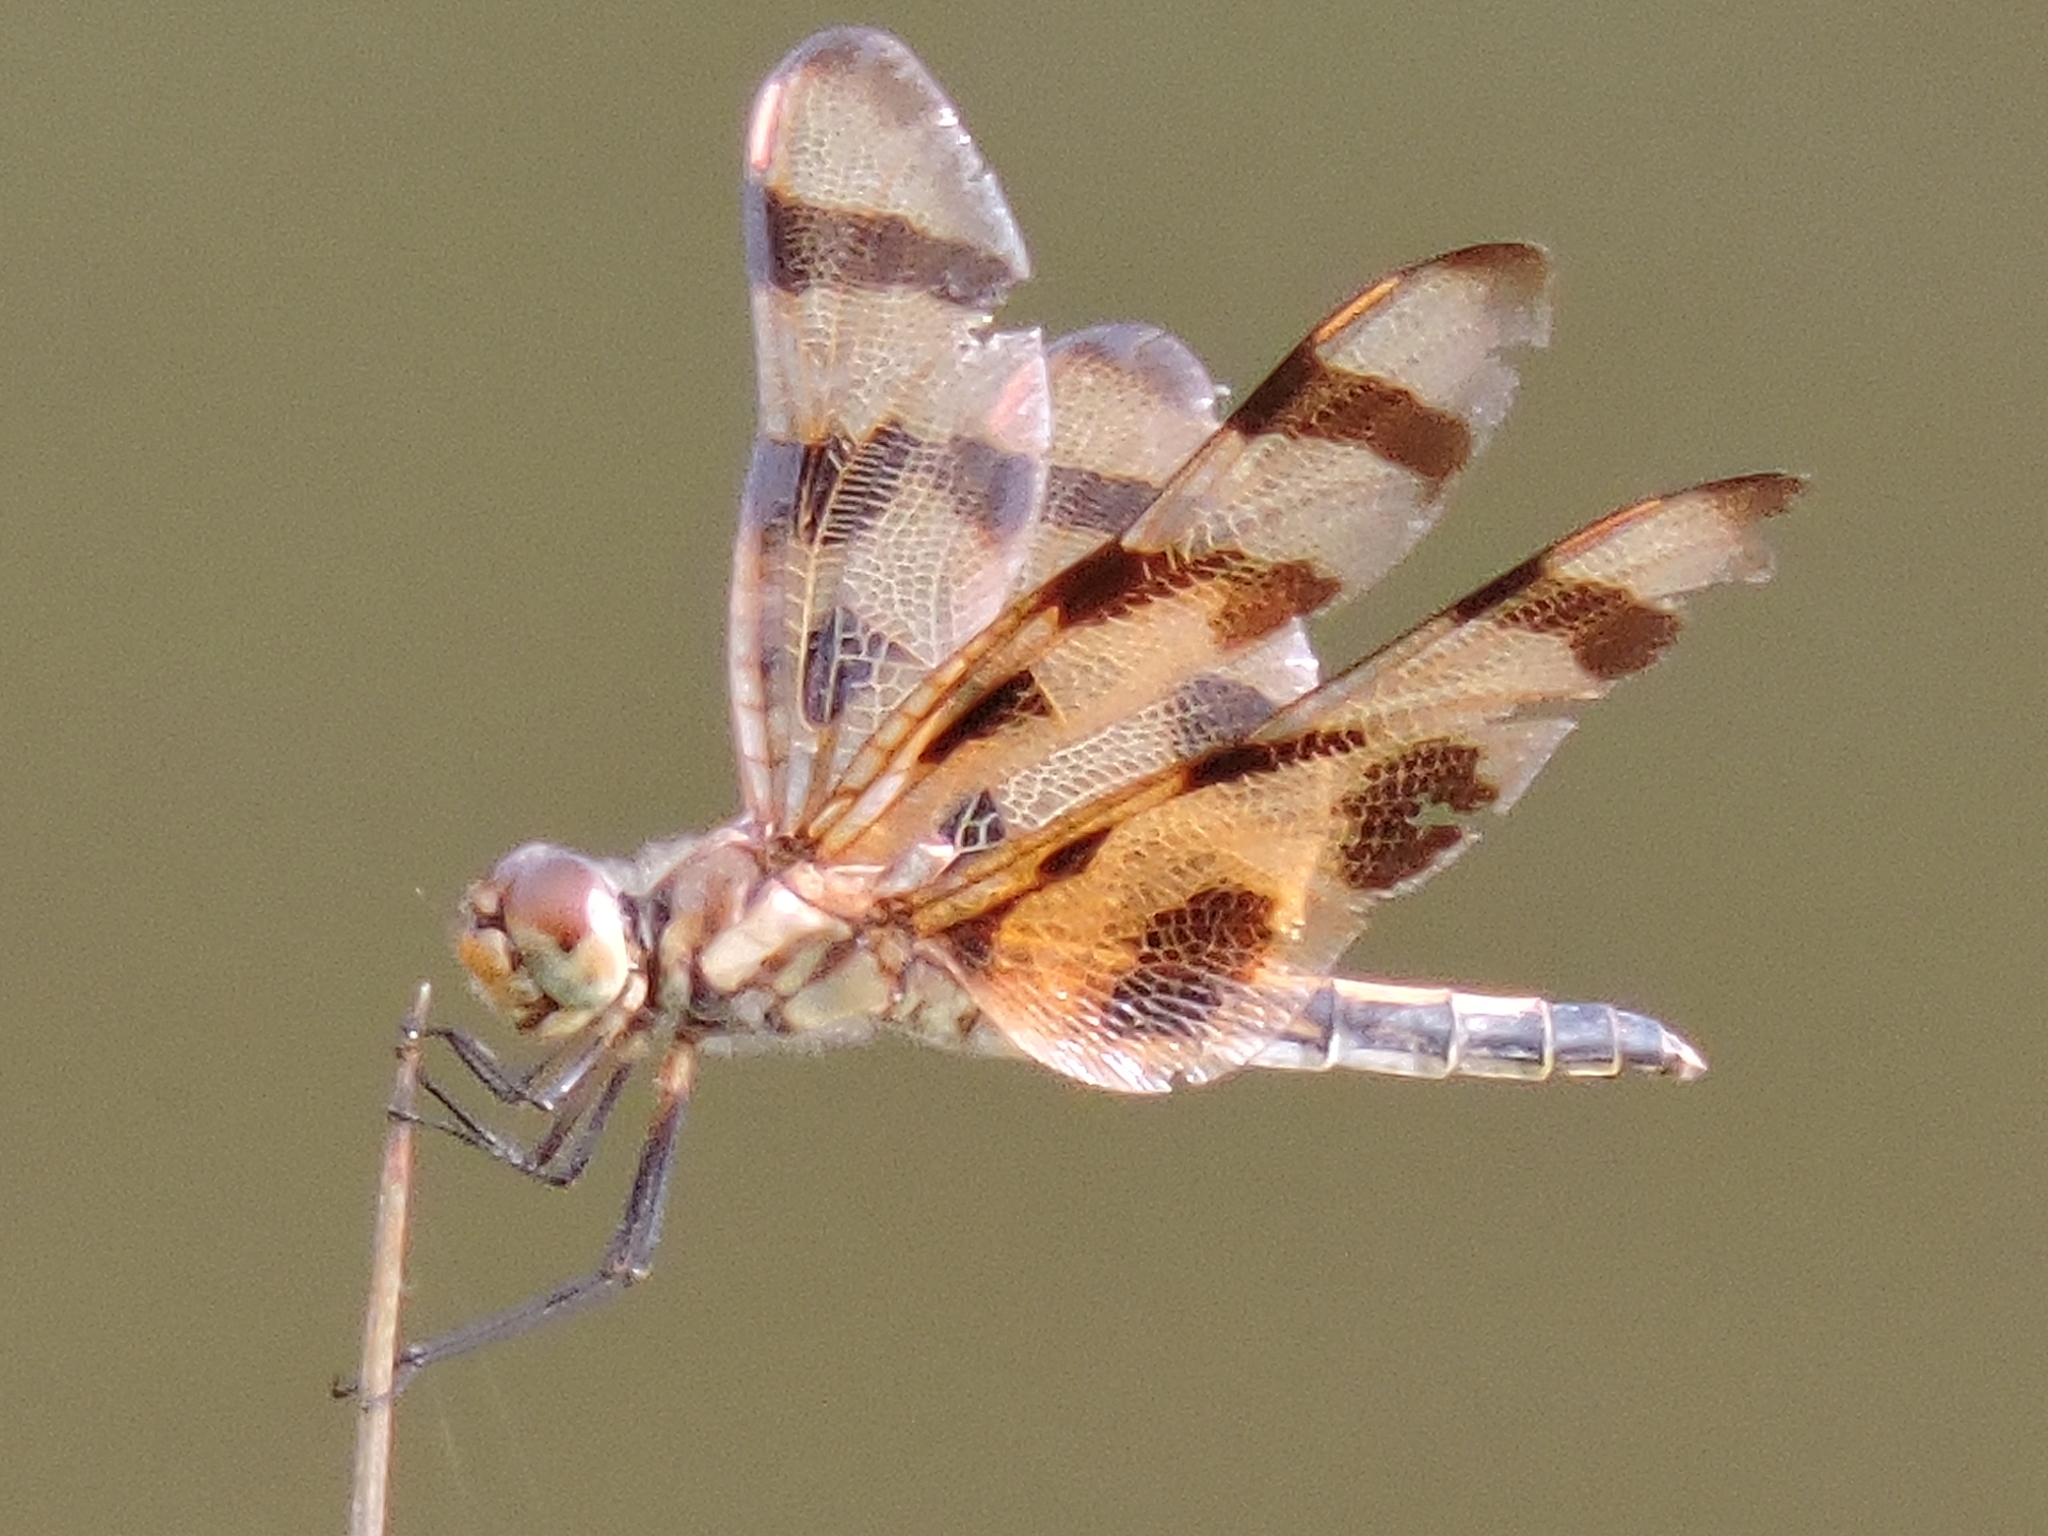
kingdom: Animalia
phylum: Arthropoda
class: Insecta
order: Odonata
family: Libellulidae
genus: Celithemis
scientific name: Celithemis eponina
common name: Halloween pennant
